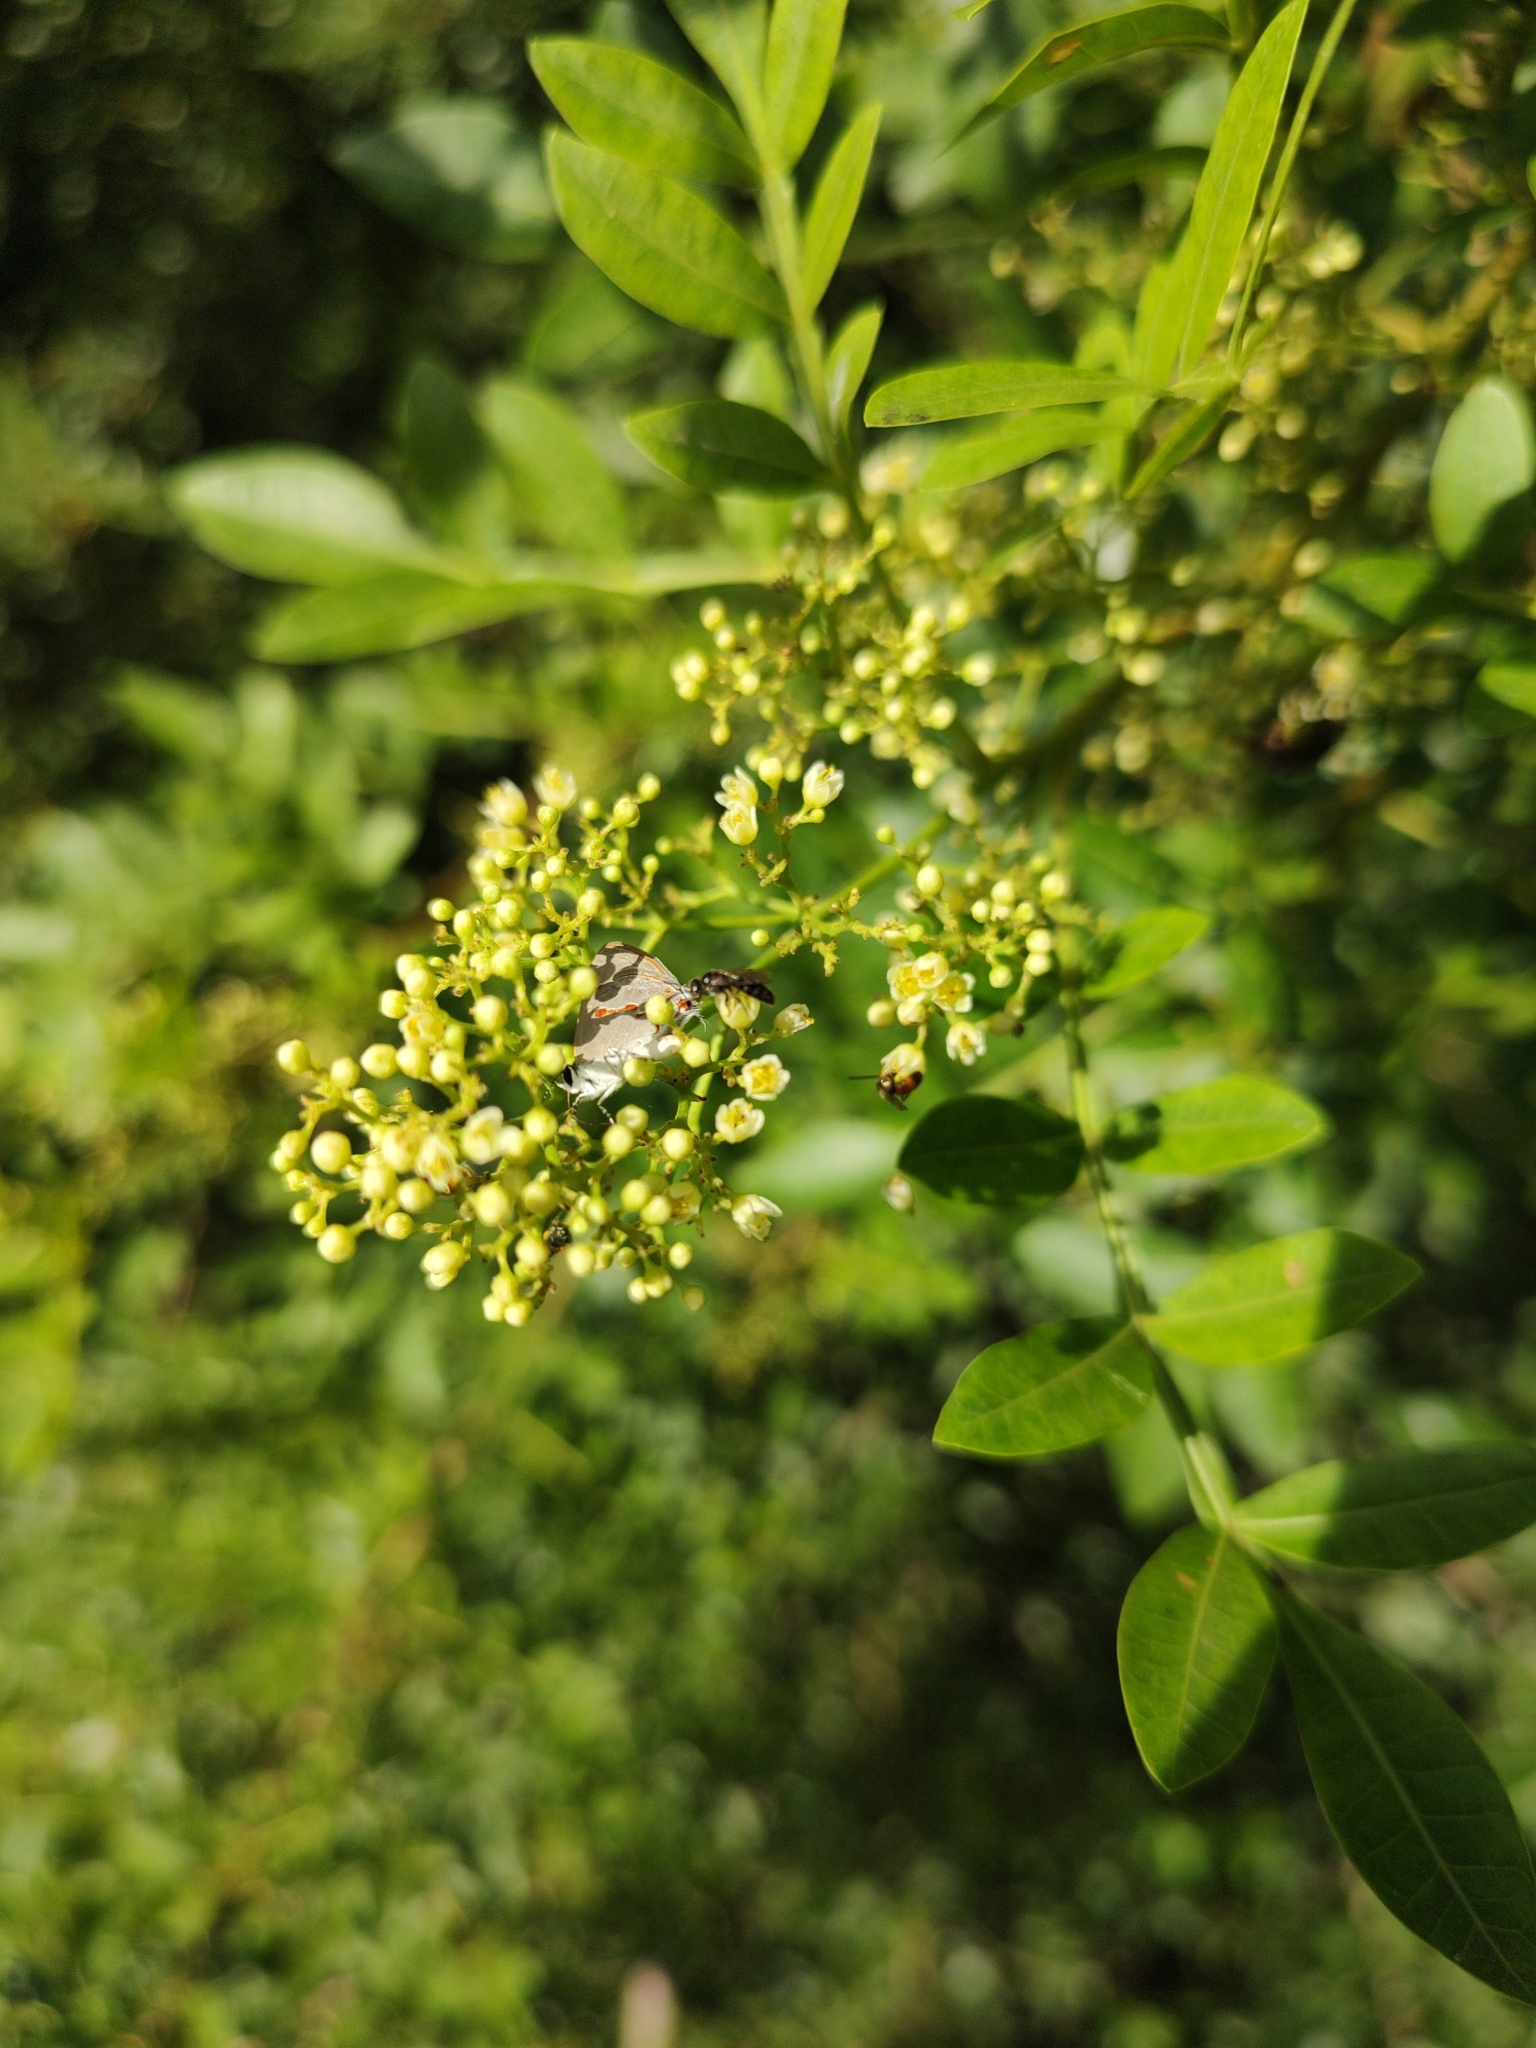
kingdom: Animalia
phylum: Arthropoda
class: Insecta
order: Lepidoptera
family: Lycaenidae
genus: Thecla
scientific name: Thecla azia
